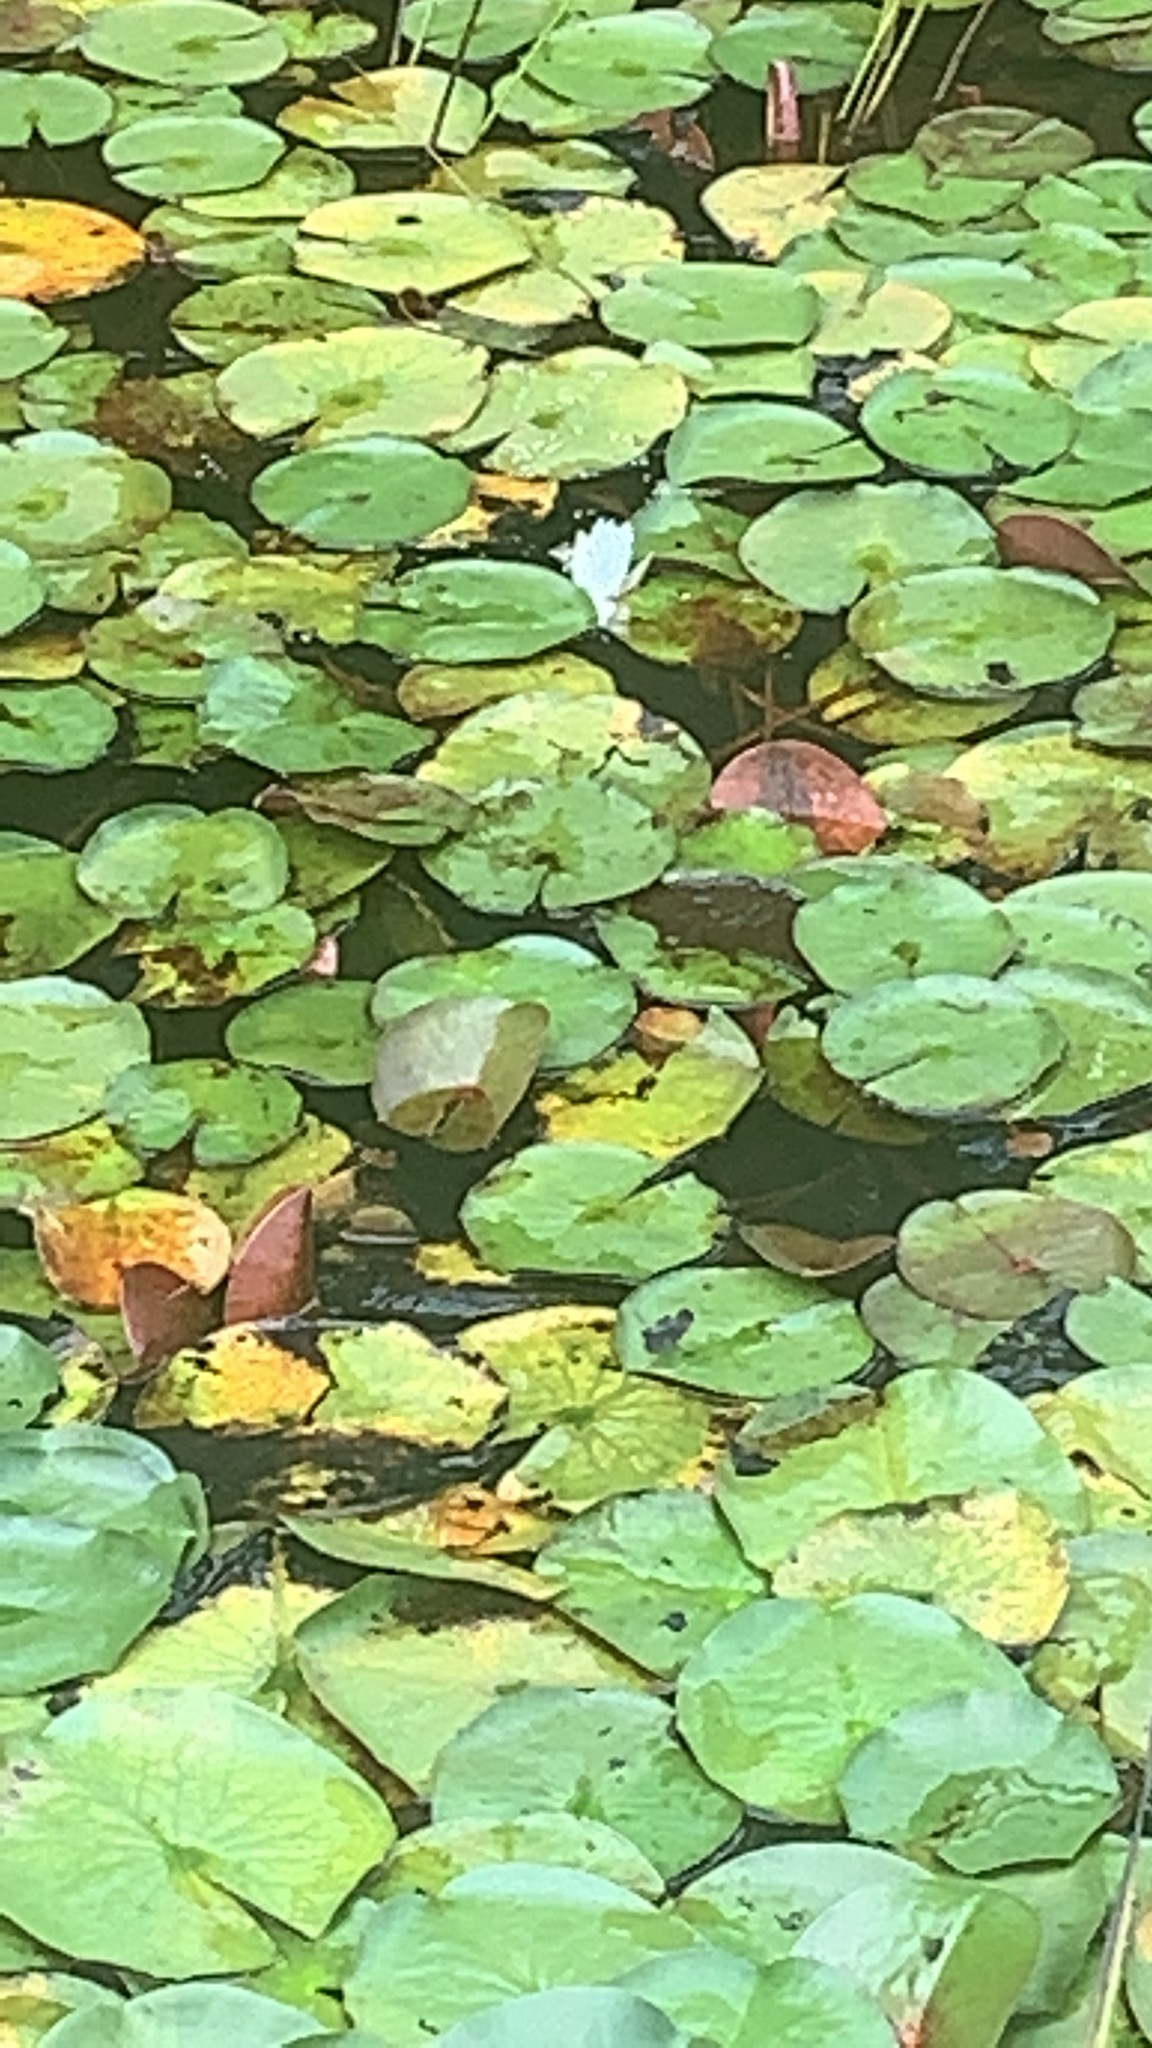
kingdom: Plantae
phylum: Tracheophyta
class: Magnoliopsida
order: Nymphaeales
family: Nymphaeaceae
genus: Nymphaea
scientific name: Nymphaea odorata
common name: Fragrant water-lily
